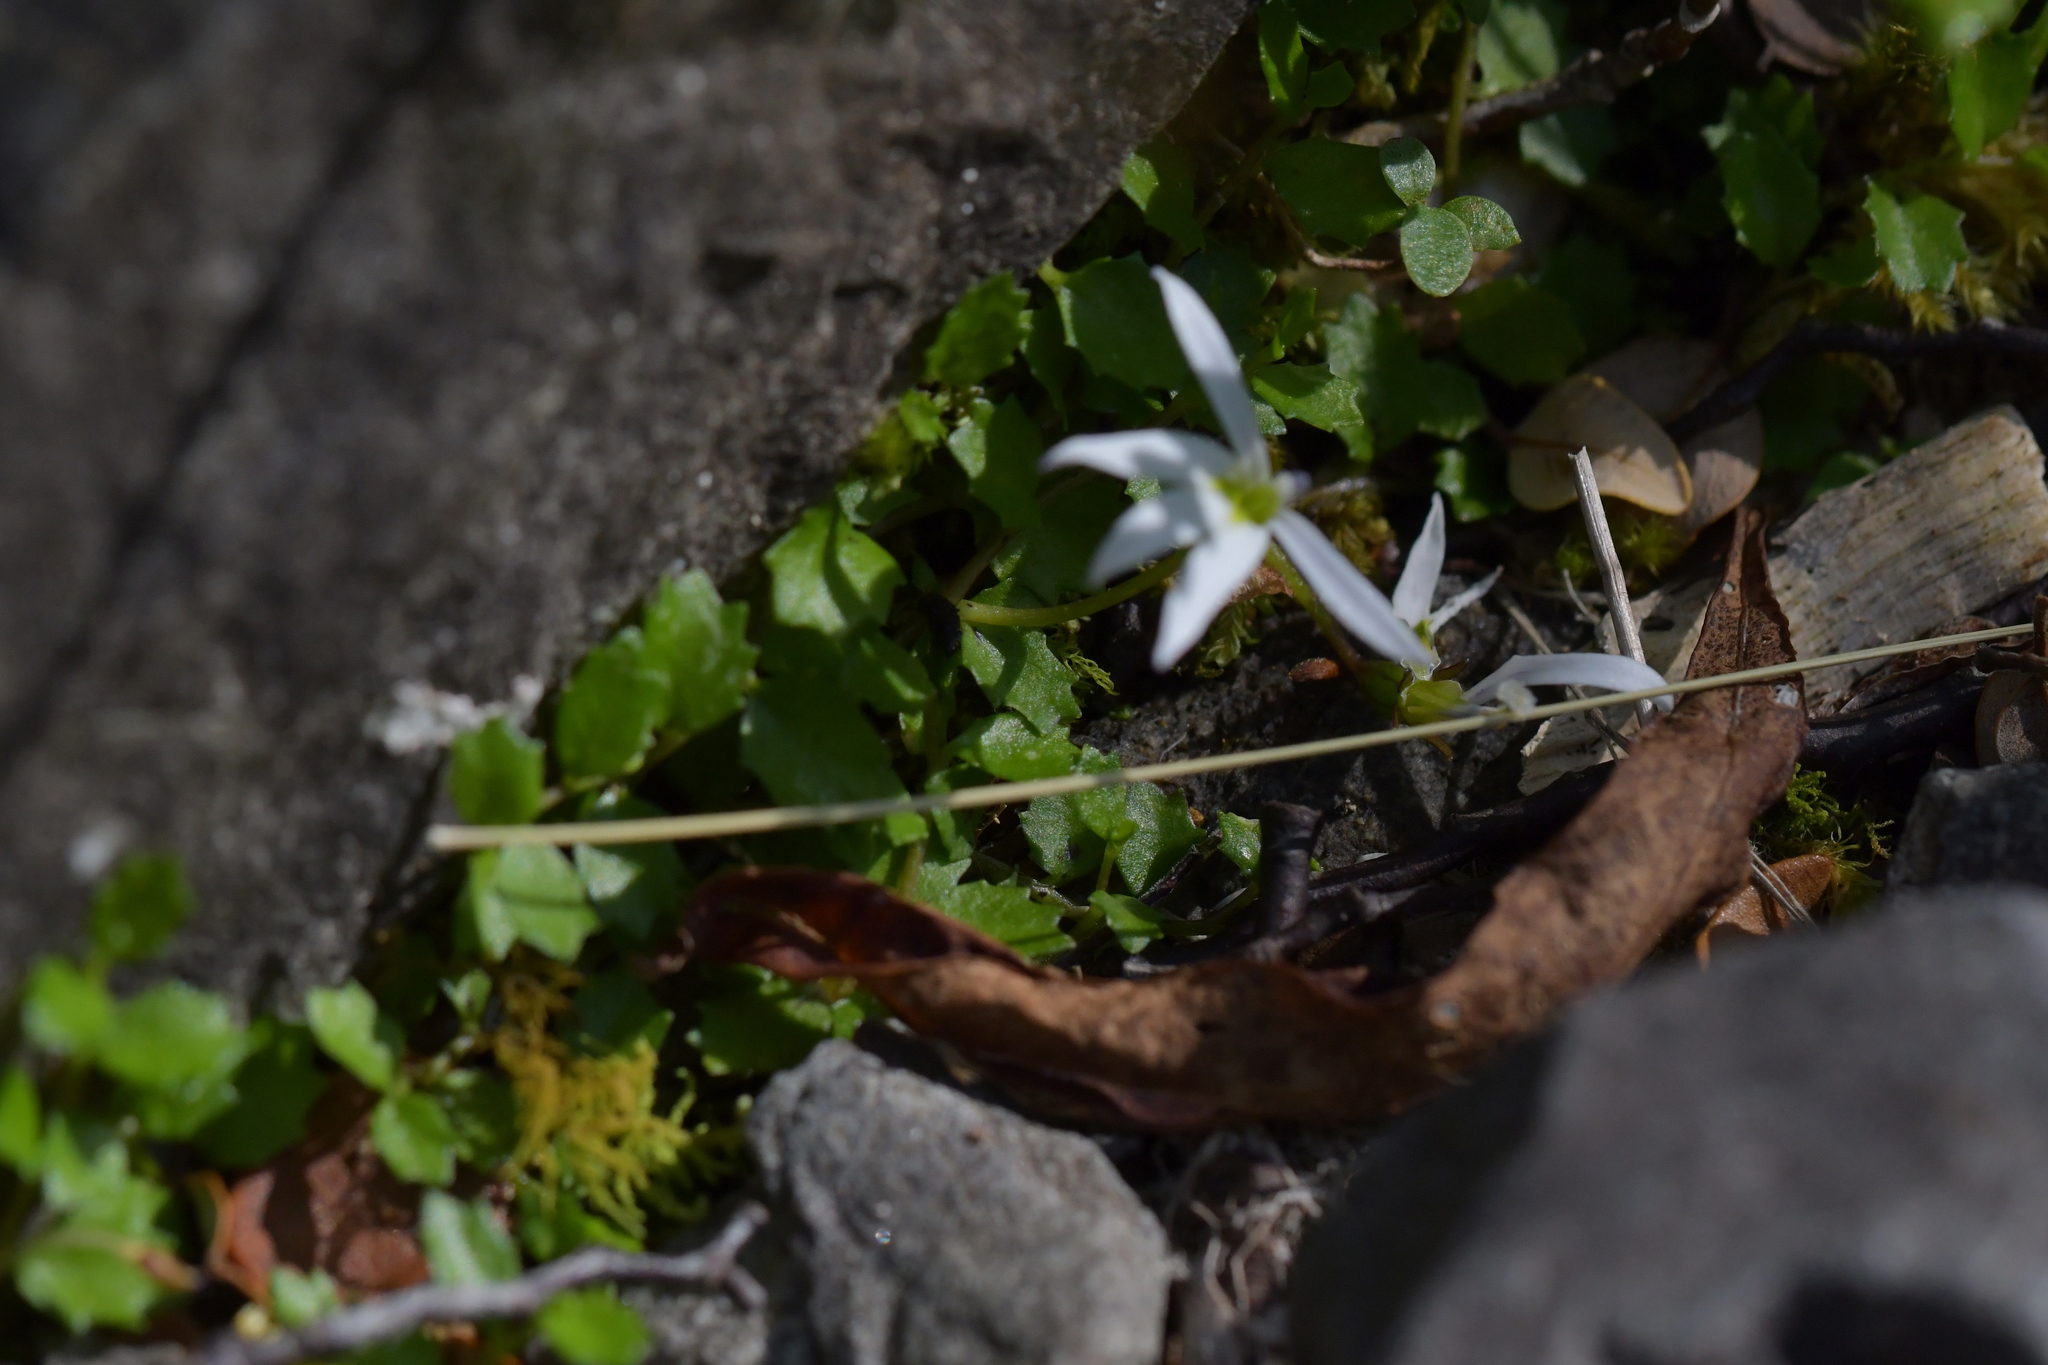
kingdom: Plantae
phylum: Tracheophyta
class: Magnoliopsida
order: Asterales
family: Campanulaceae
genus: Lobelia
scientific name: Lobelia angulata
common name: Lawn lobelia
